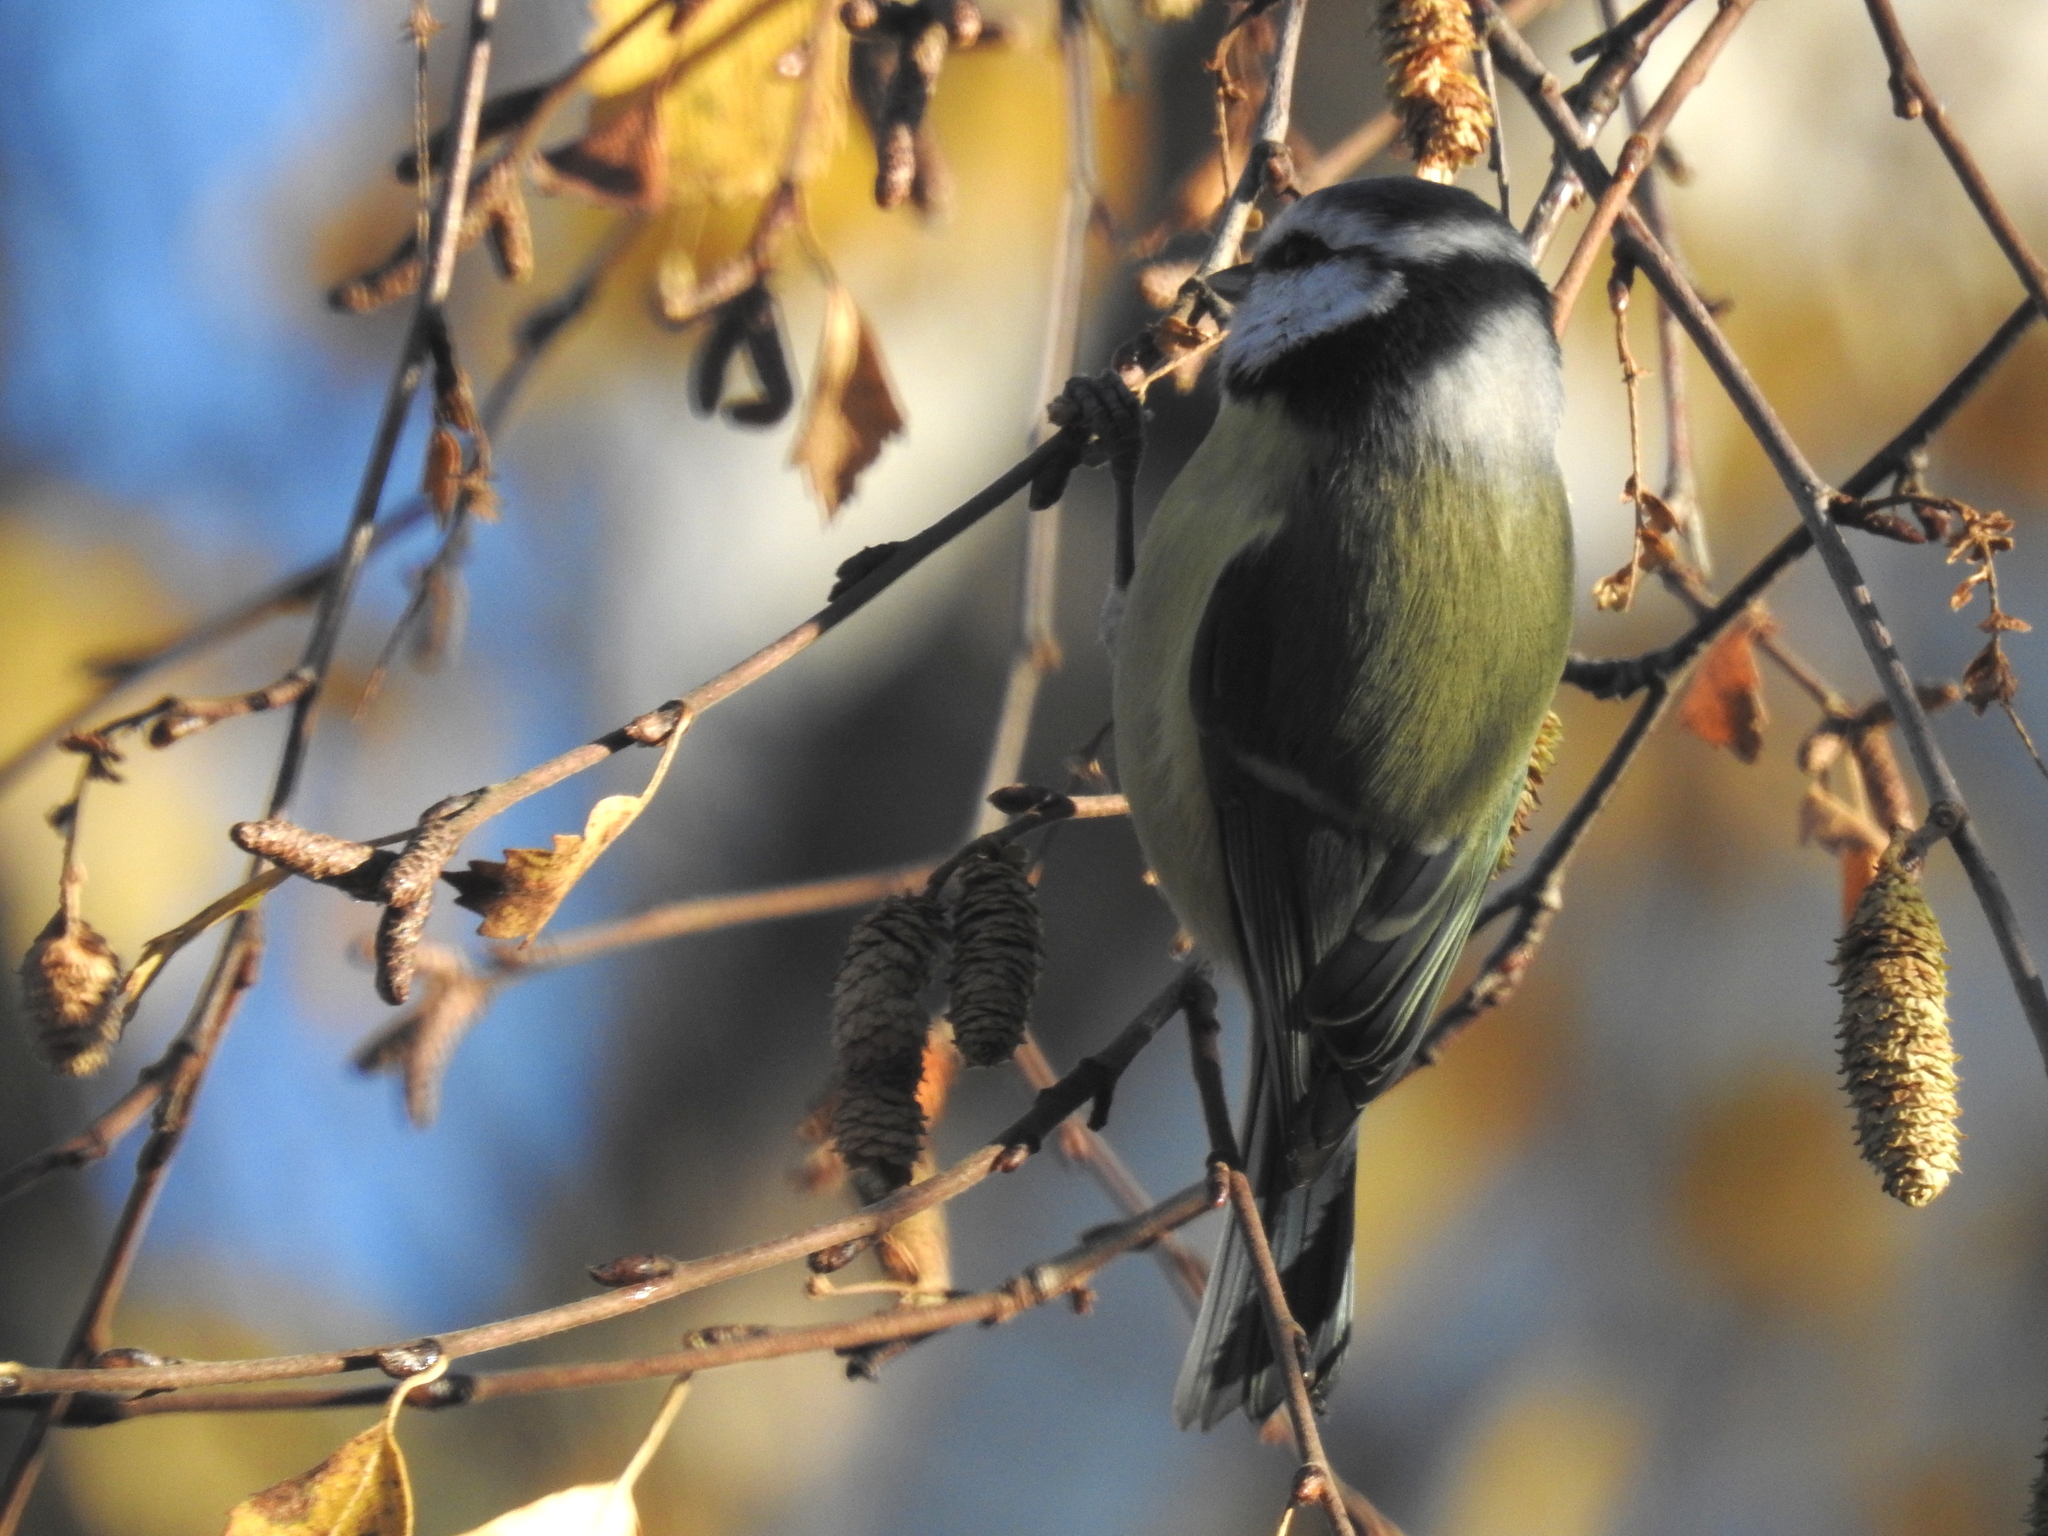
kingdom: Animalia
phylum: Chordata
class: Aves
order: Passeriformes
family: Paridae
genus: Cyanistes
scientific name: Cyanistes caeruleus
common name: Eurasian blue tit
